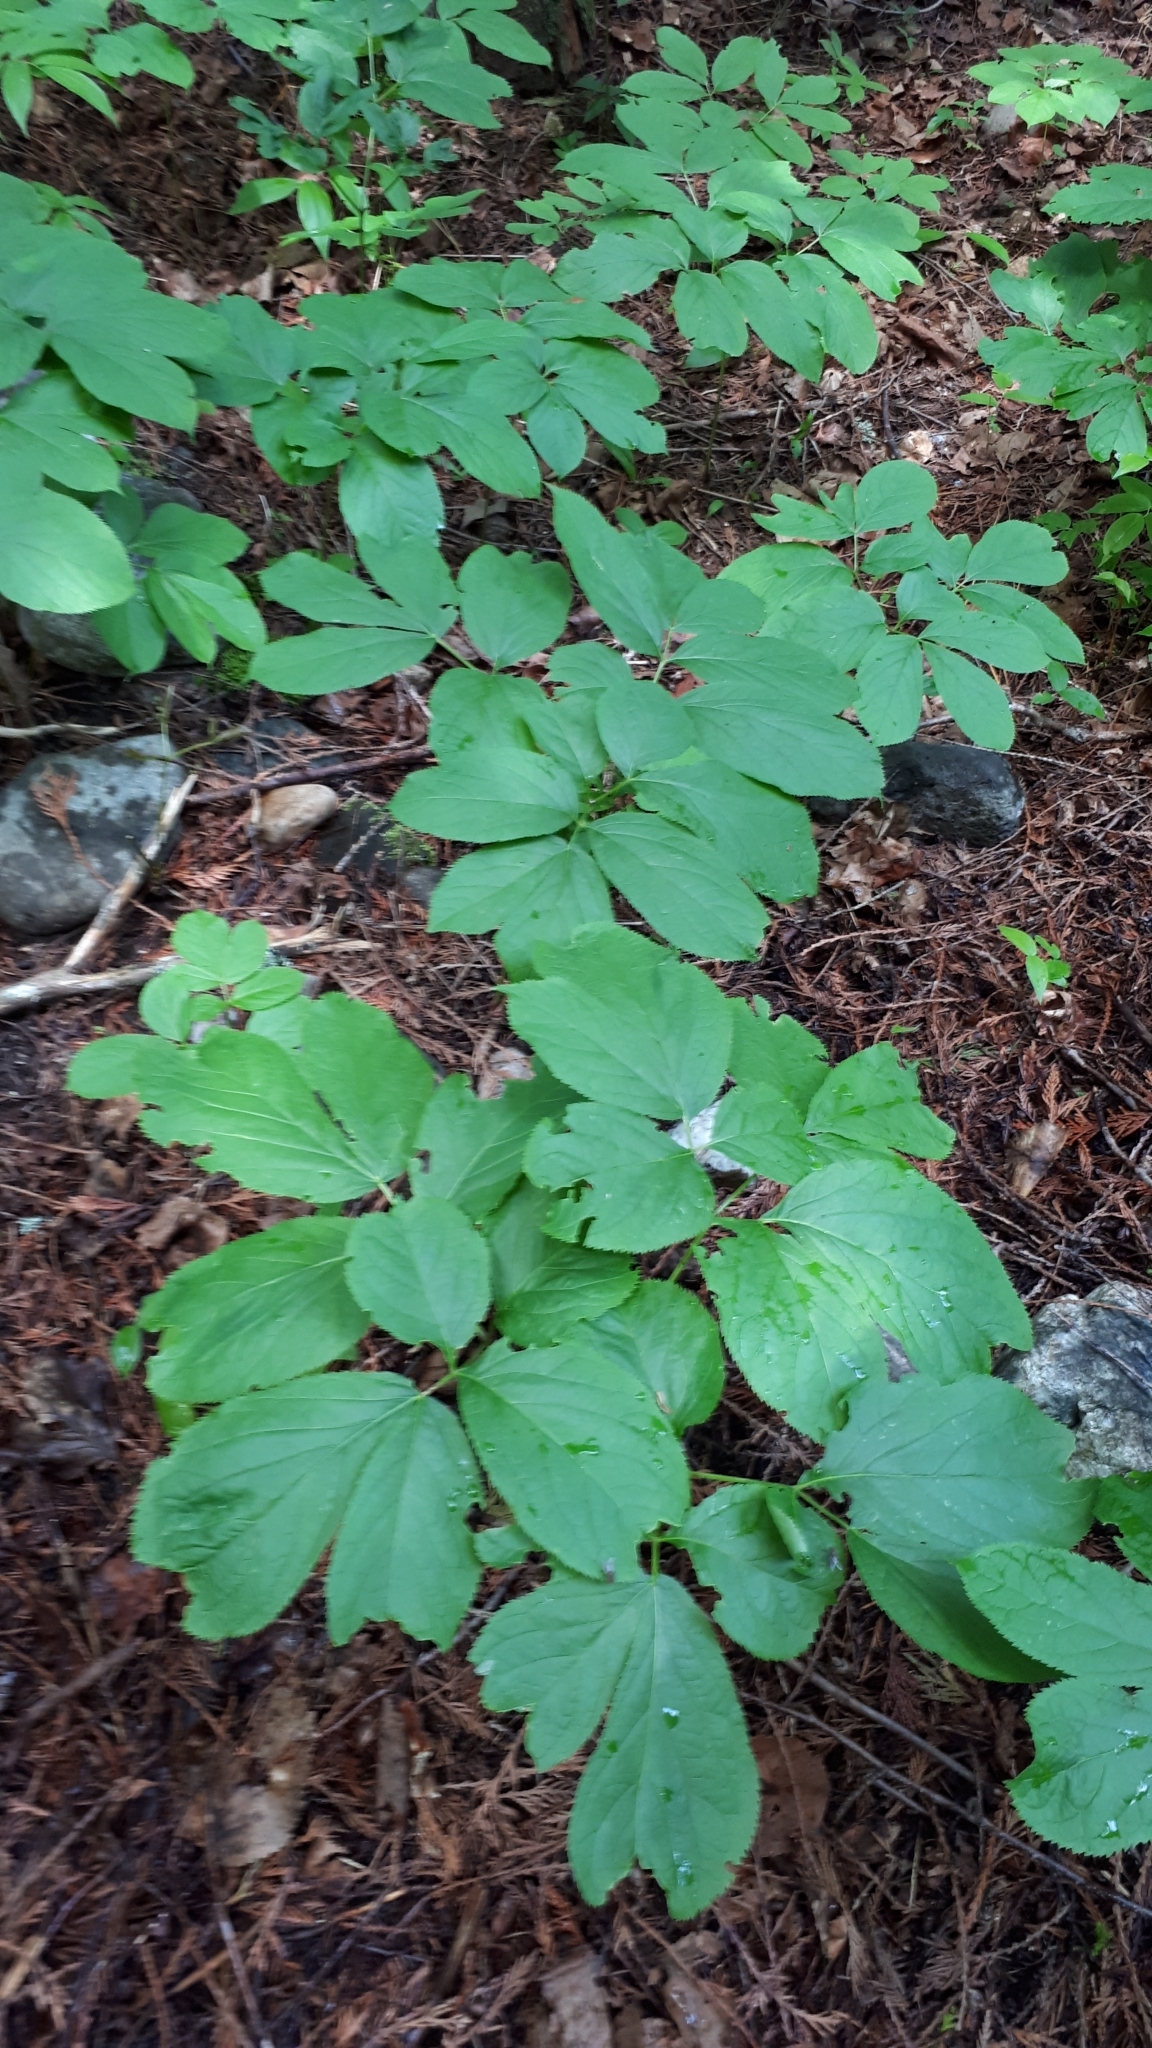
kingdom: Plantae
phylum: Tracheophyta
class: Magnoliopsida
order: Apiales
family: Araliaceae
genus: Aralia
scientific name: Aralia nudicaulis
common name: Wild sarsaparilla
